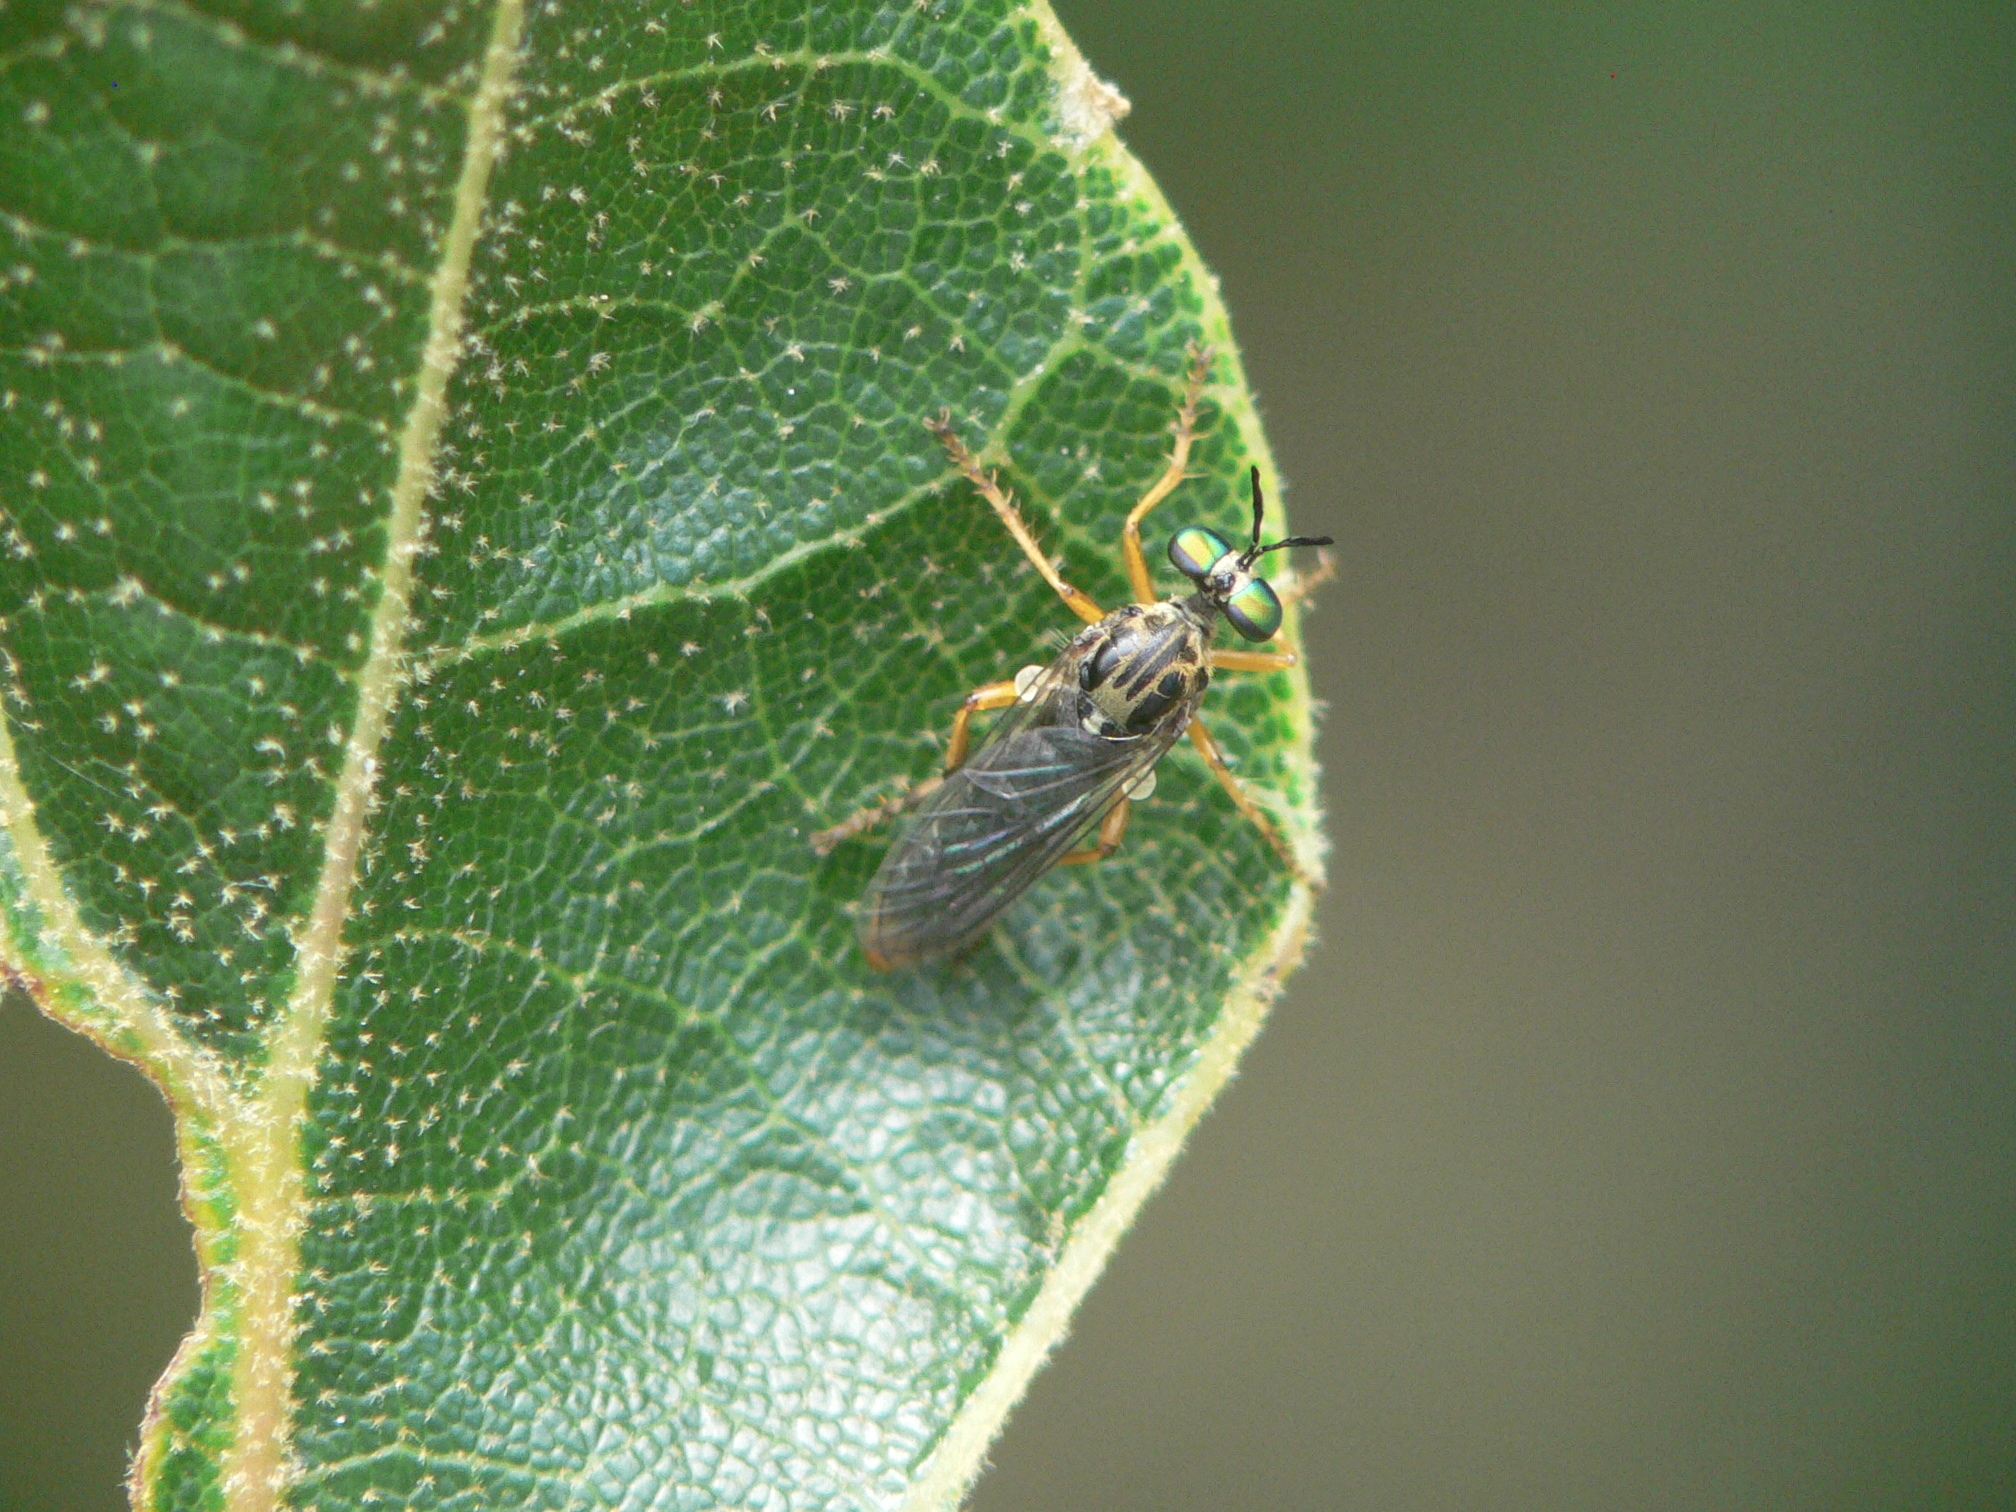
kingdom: Animalia
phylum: Arthropoda
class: Insecta
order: Diptera
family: Asilidae
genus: Taracticus
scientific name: Taracticus octopunctatus
